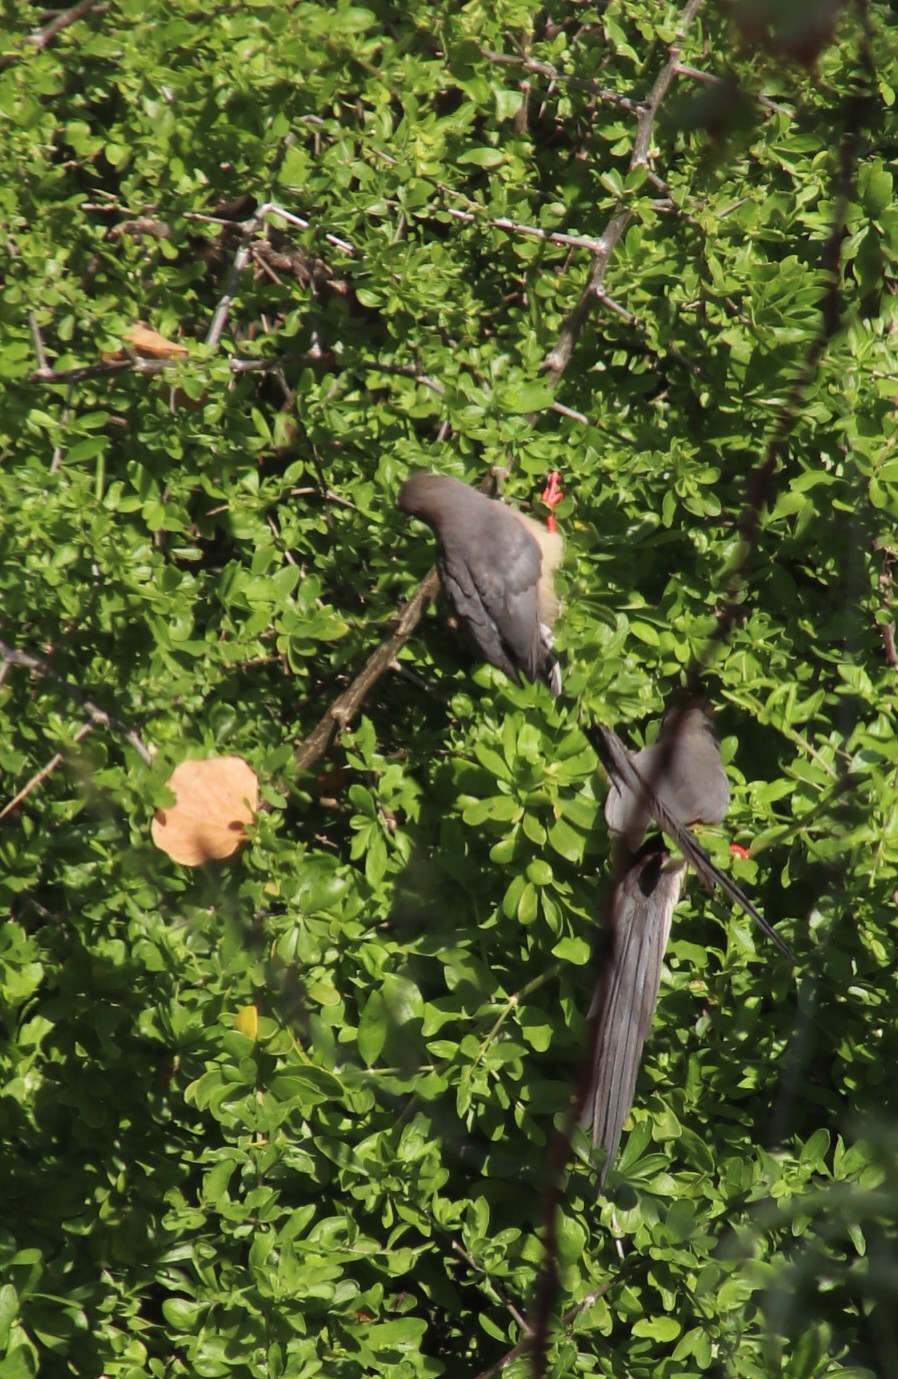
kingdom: Animalia
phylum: Chordata
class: Aves
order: Coliiformes
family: Coliidae
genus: Colius
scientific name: Colius colius
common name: White-backed mousebird
